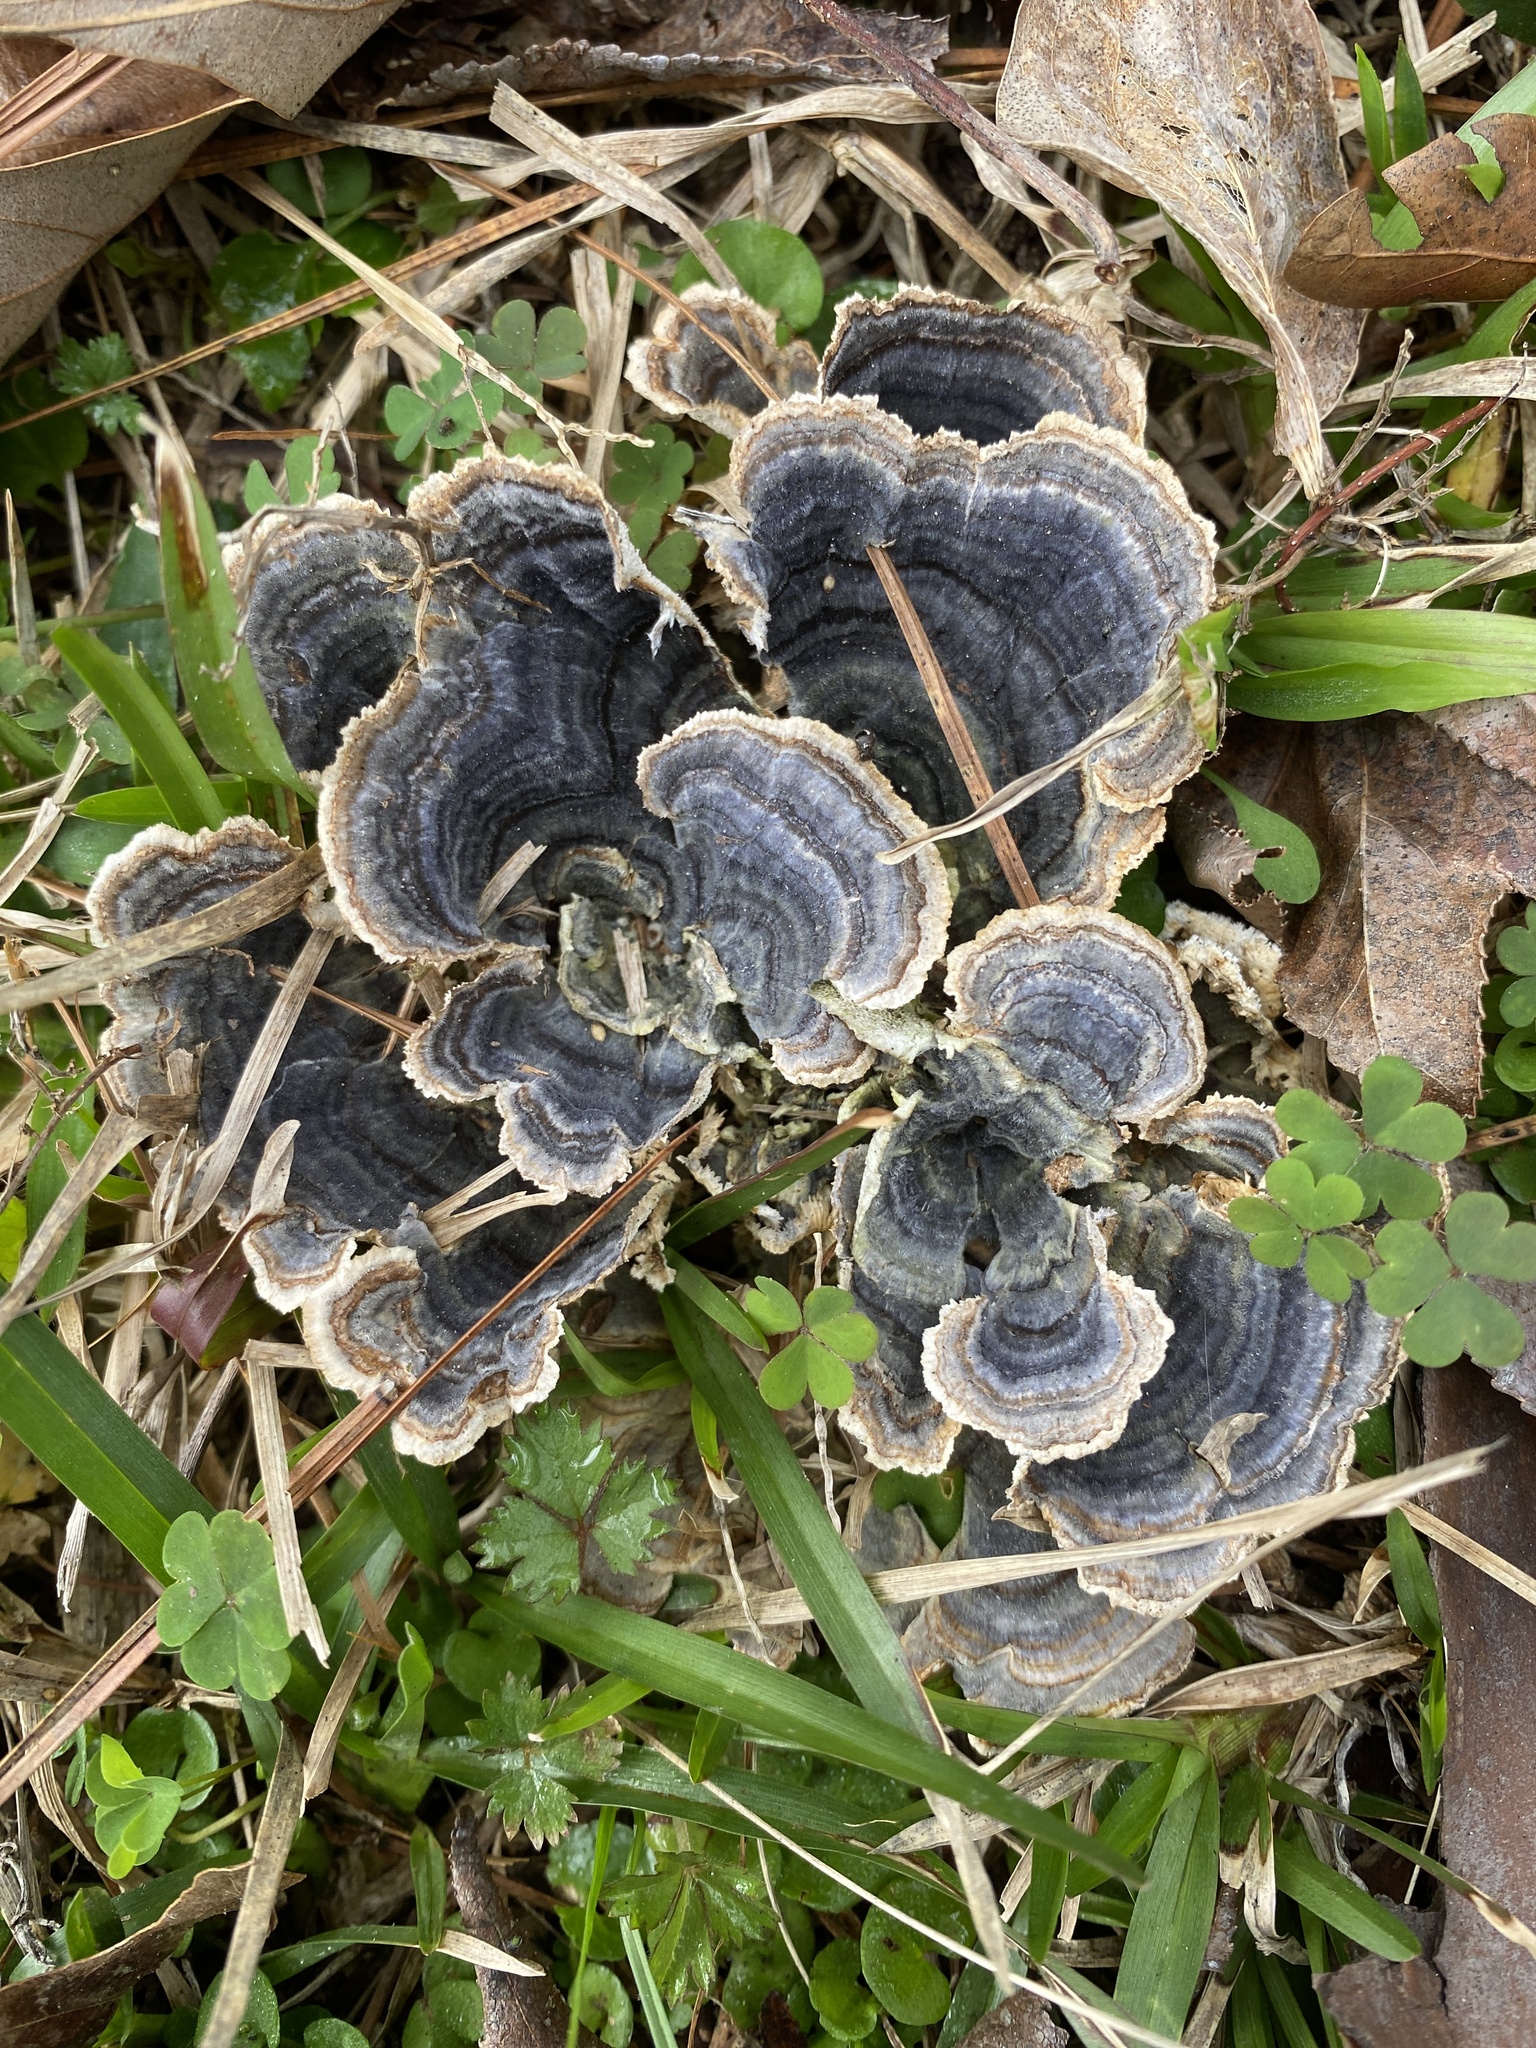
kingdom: Fungi
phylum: Basidiomycota
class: Agaricomycetes
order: Polyporales
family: Polyporaceae
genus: Trametes
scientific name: Trametes versicolor
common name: Turkeytail
